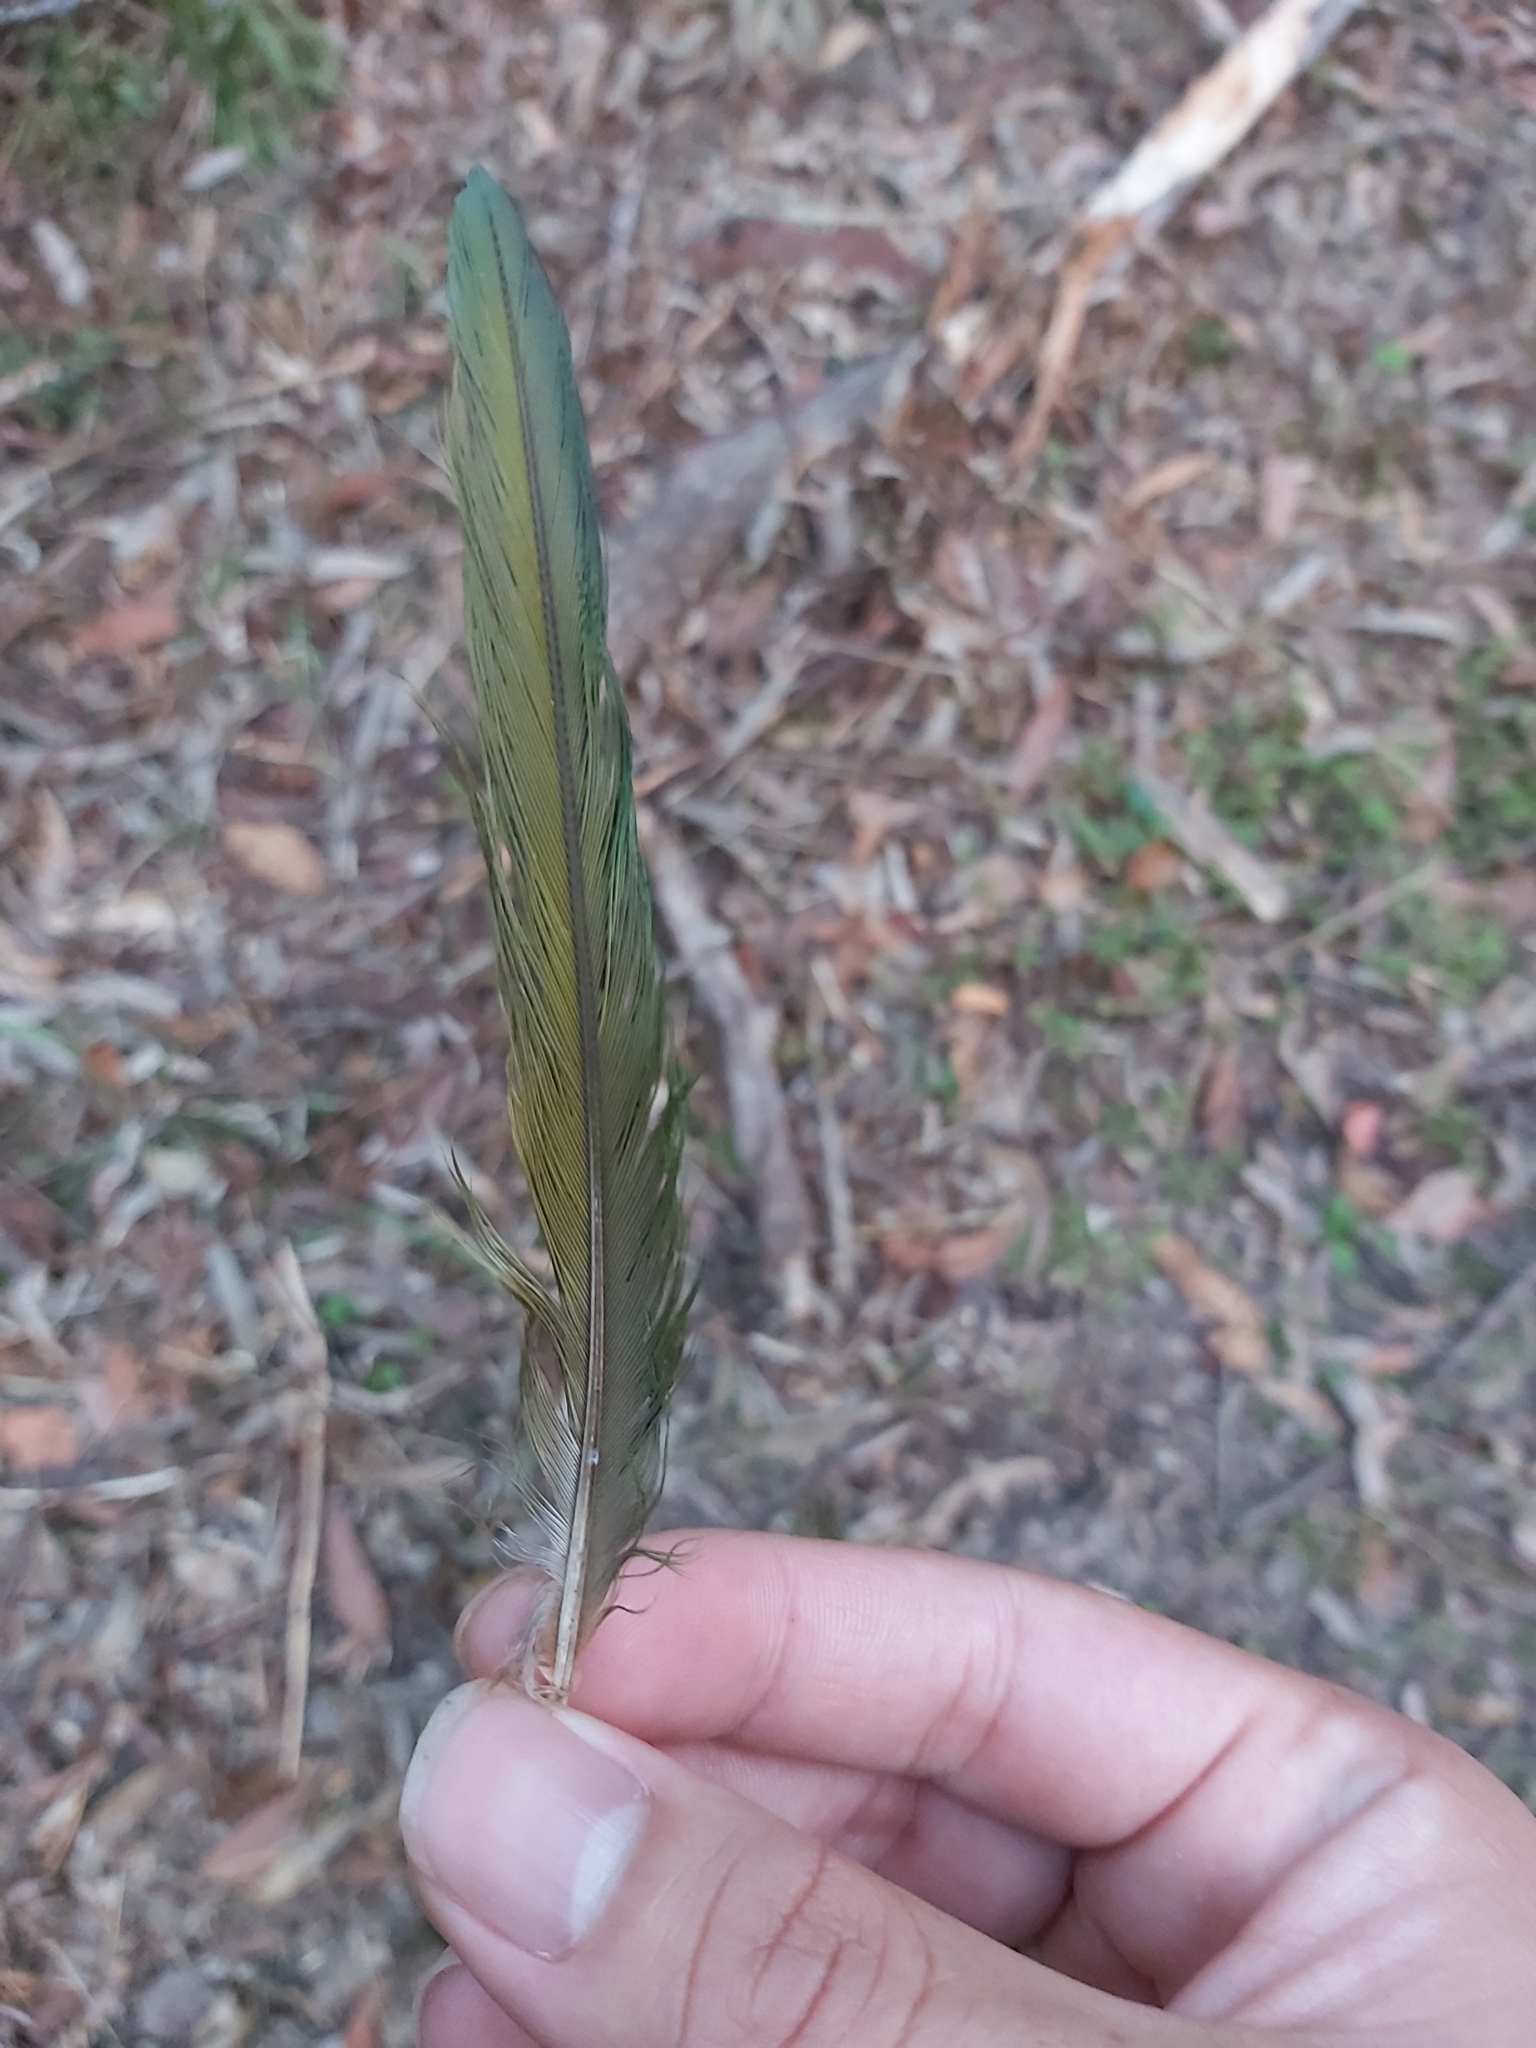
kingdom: Animalia
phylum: Chordata
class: Aves
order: Psittaciformes
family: Psittacidae
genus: Trichoglossus
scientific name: Trichoglossus haematodus
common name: Coconut lorikeet
